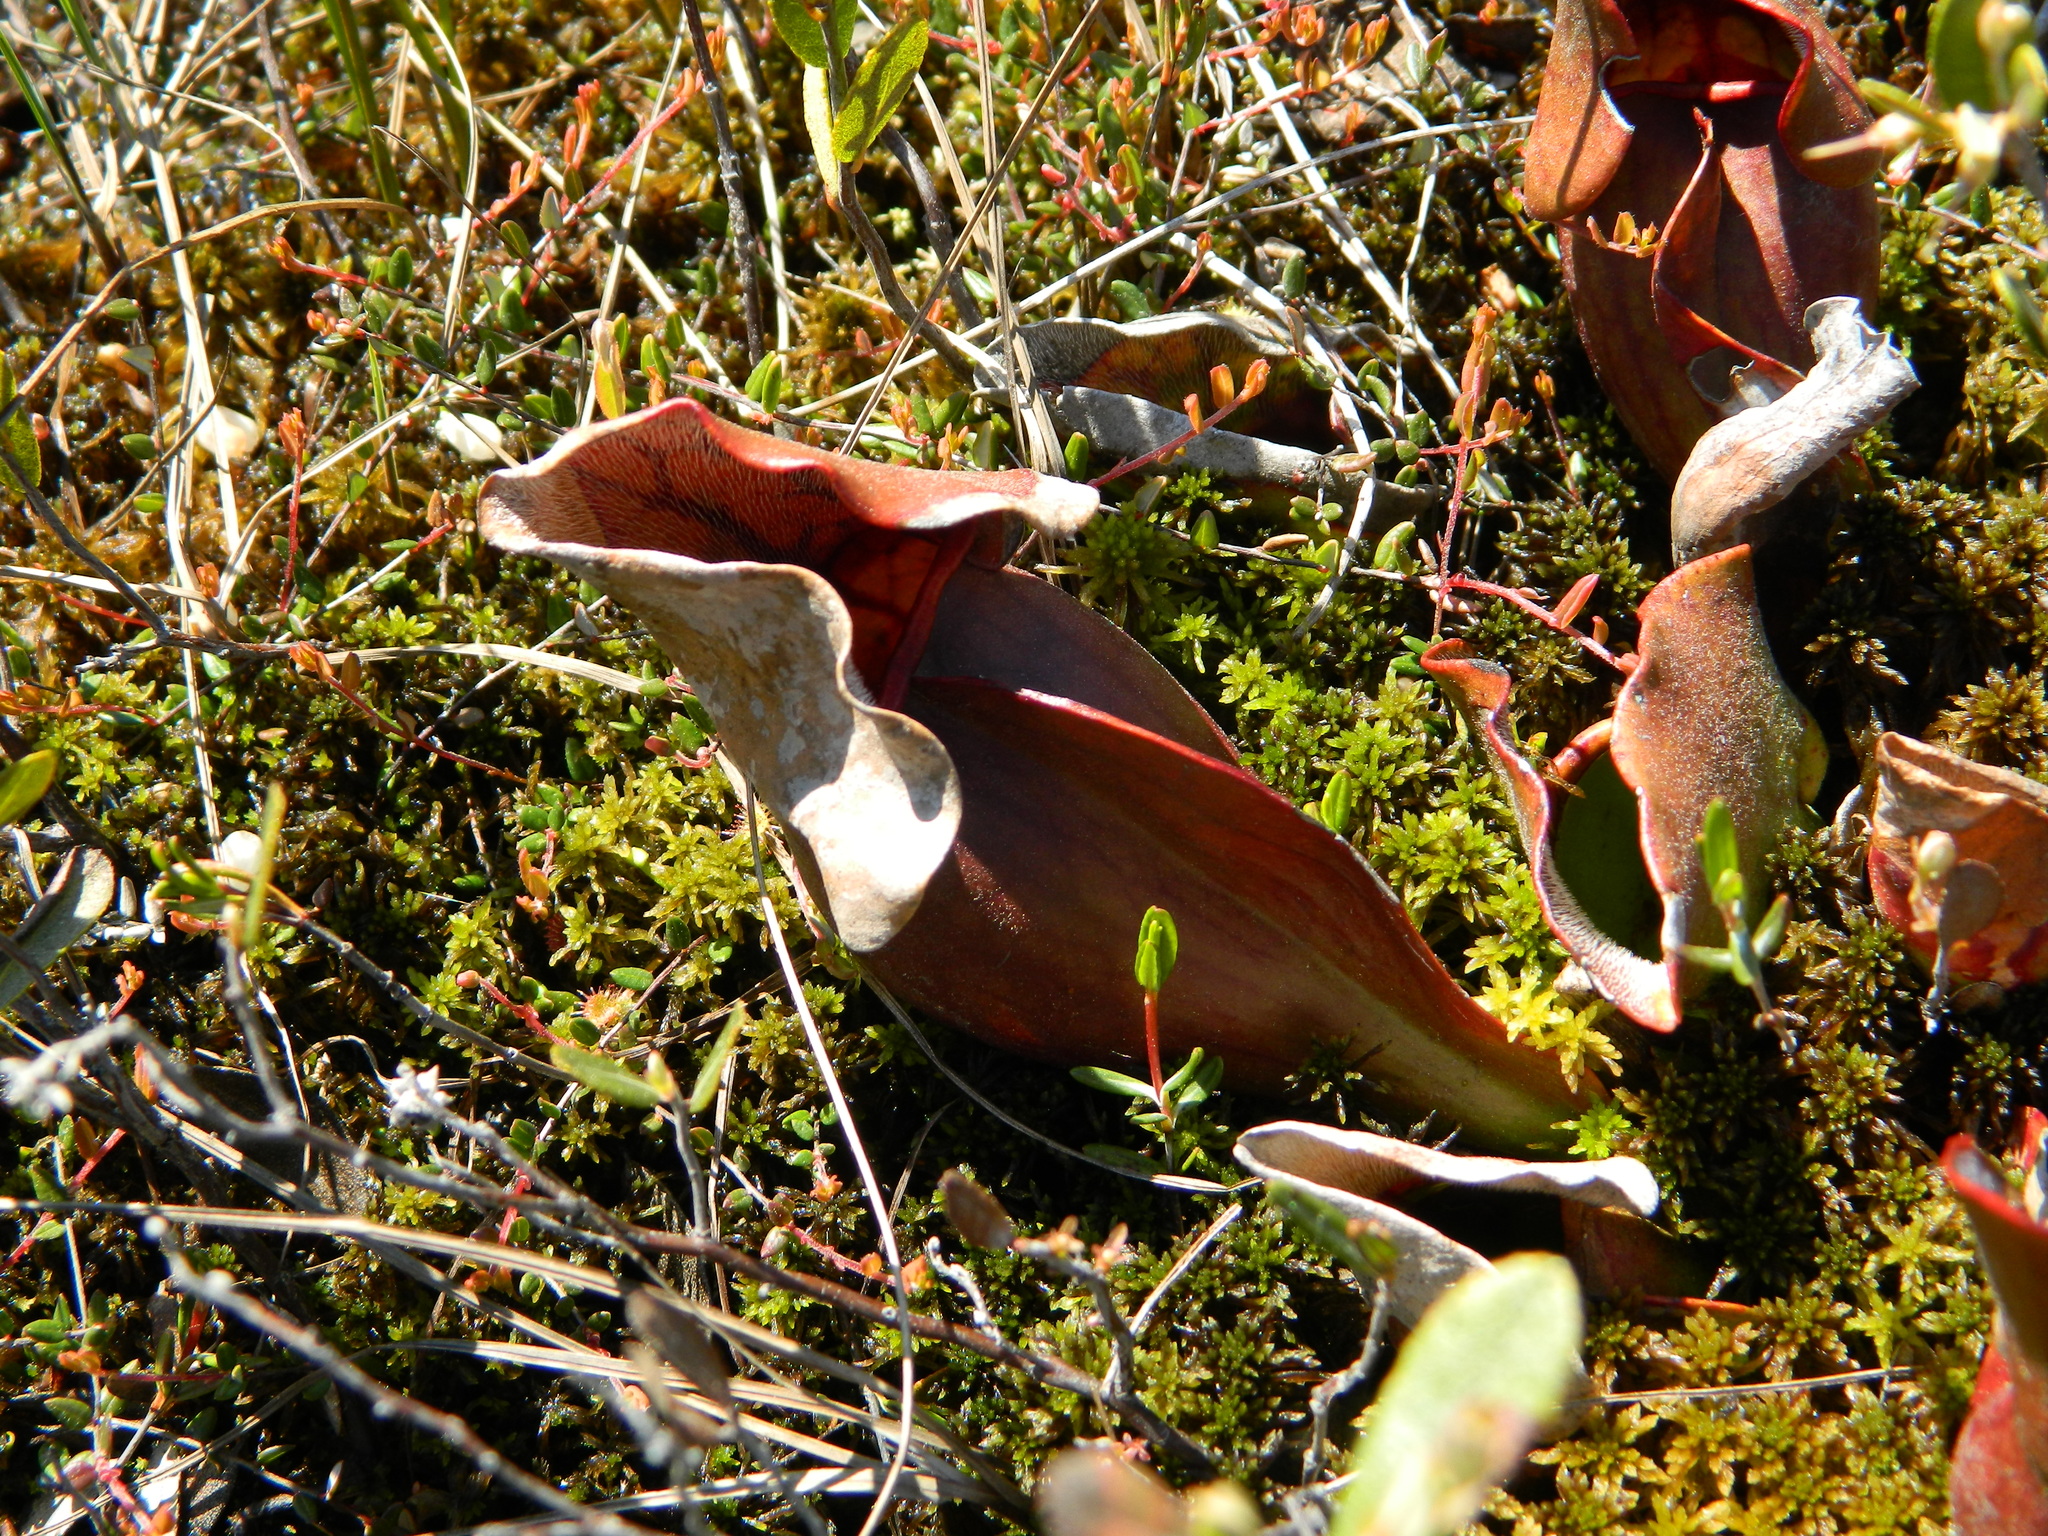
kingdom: Plantae
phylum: Tracheophyta
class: Magnoliopsida
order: Ericales
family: Sarraceniaceae
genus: Sarracenia
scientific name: Sarracenia purpurea
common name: Pitcherplant
